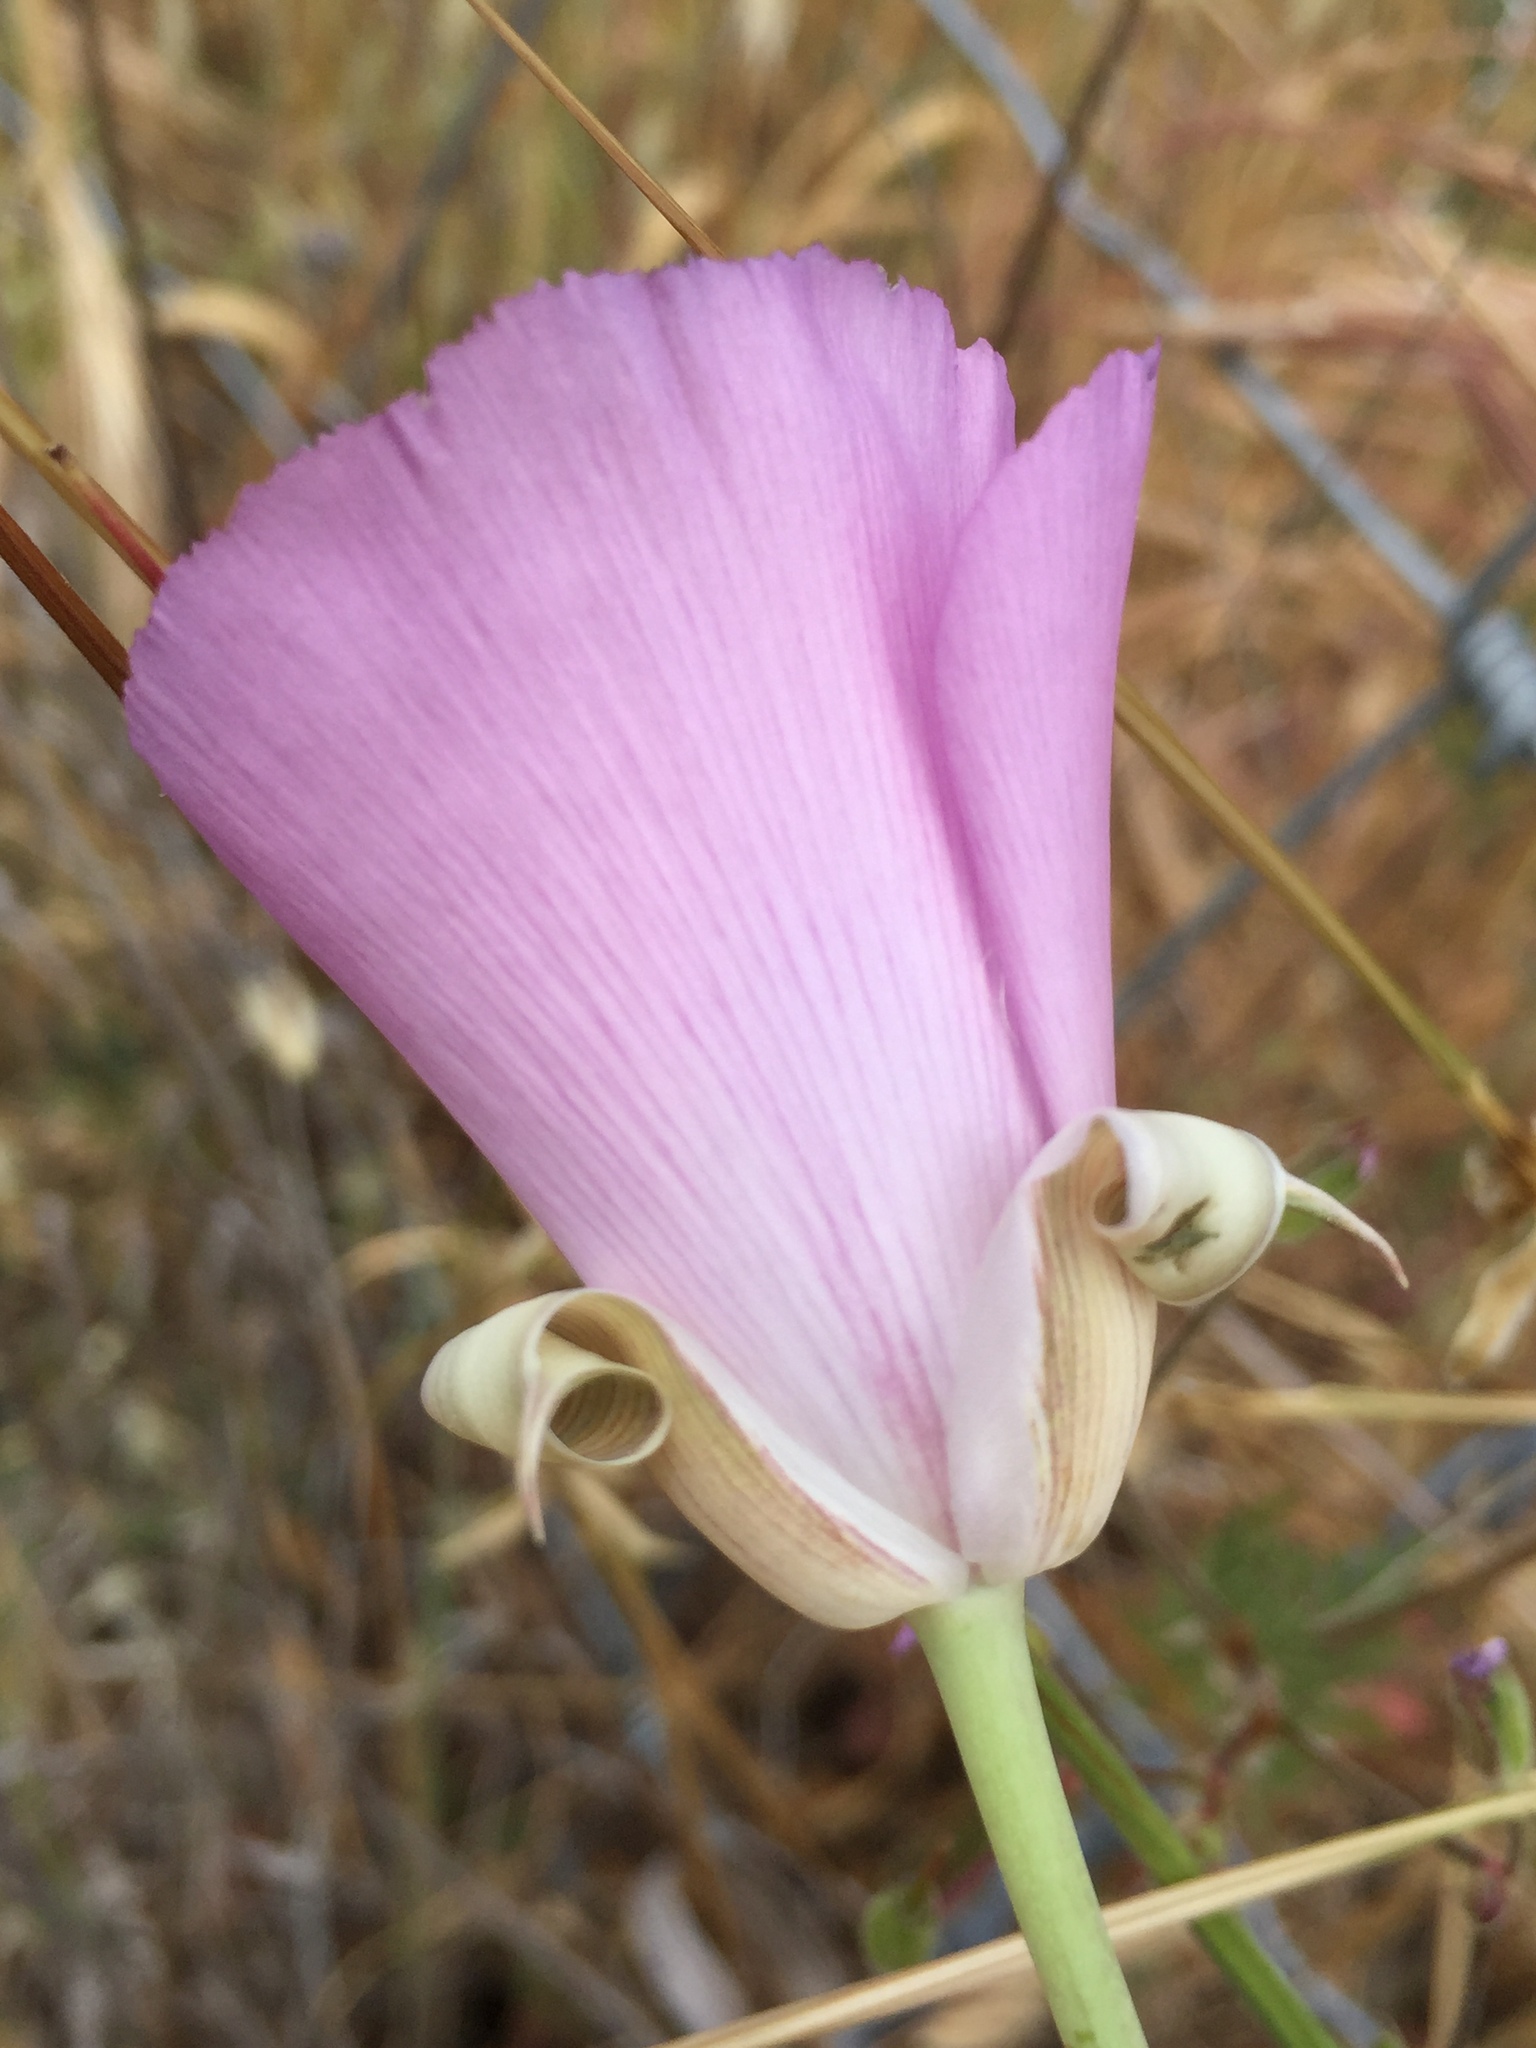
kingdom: Plantae
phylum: Tracheophyta
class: Liliopsida
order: Liliales
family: Liliaceae
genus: Calochortus
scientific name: Calochortus splendens
